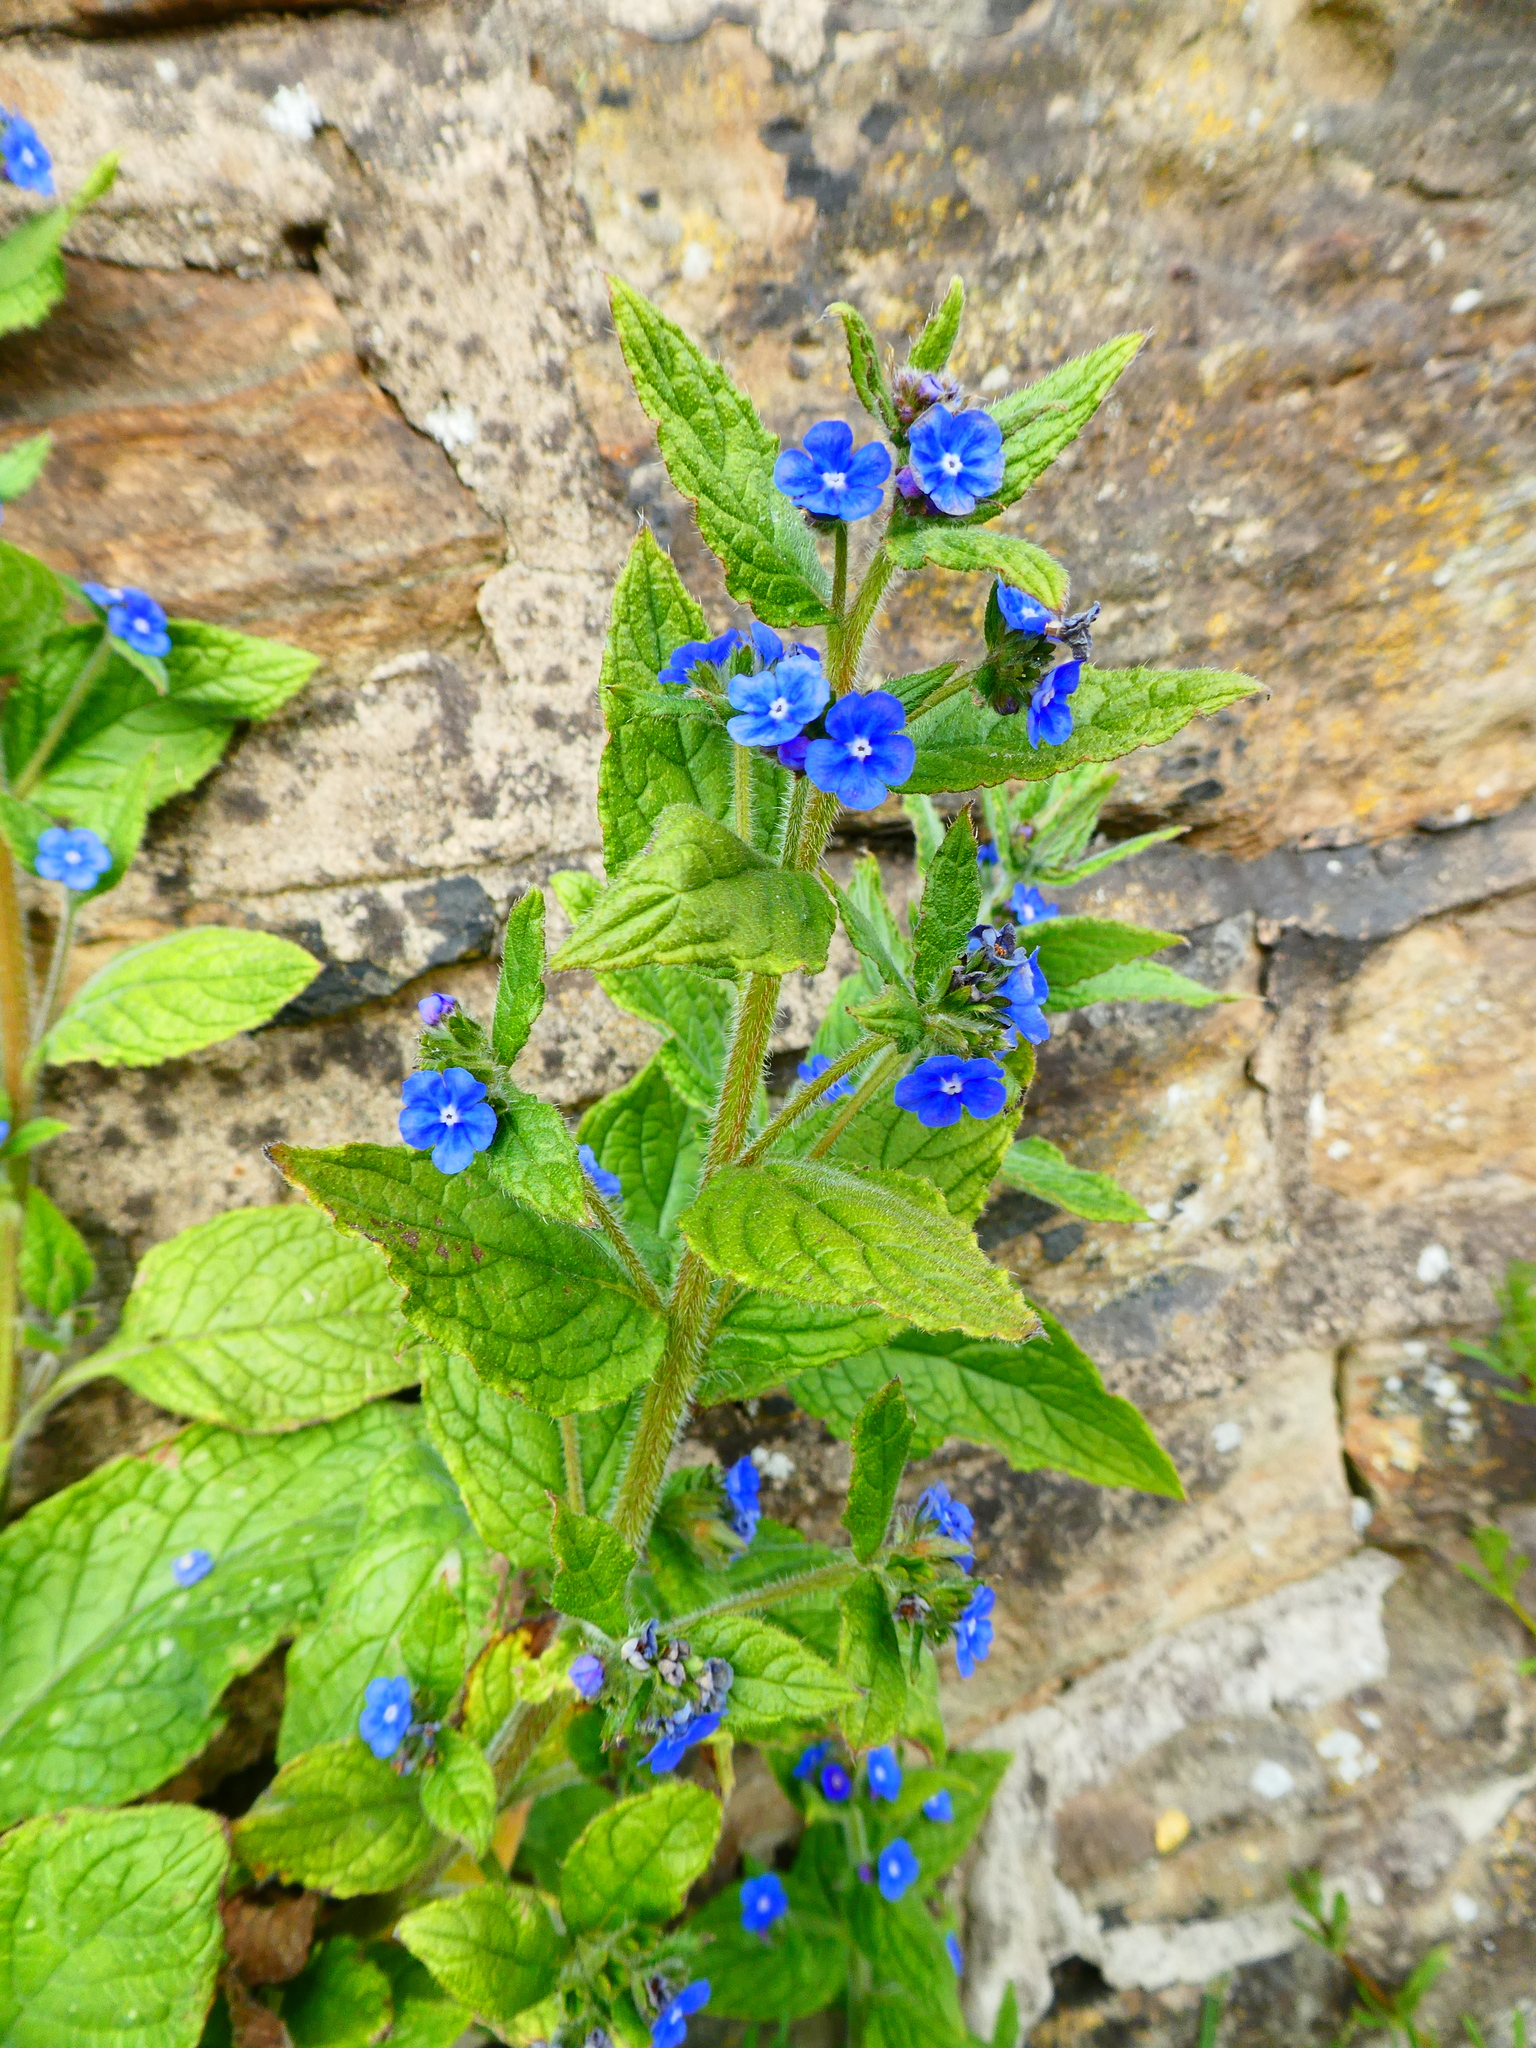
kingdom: Plantae
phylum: Tracheophyta
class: Magnoliopsida
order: Boraginales
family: Boraginaceae
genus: Pentaglottis
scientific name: Pentaglottis sempervirens
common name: Green alkanet
